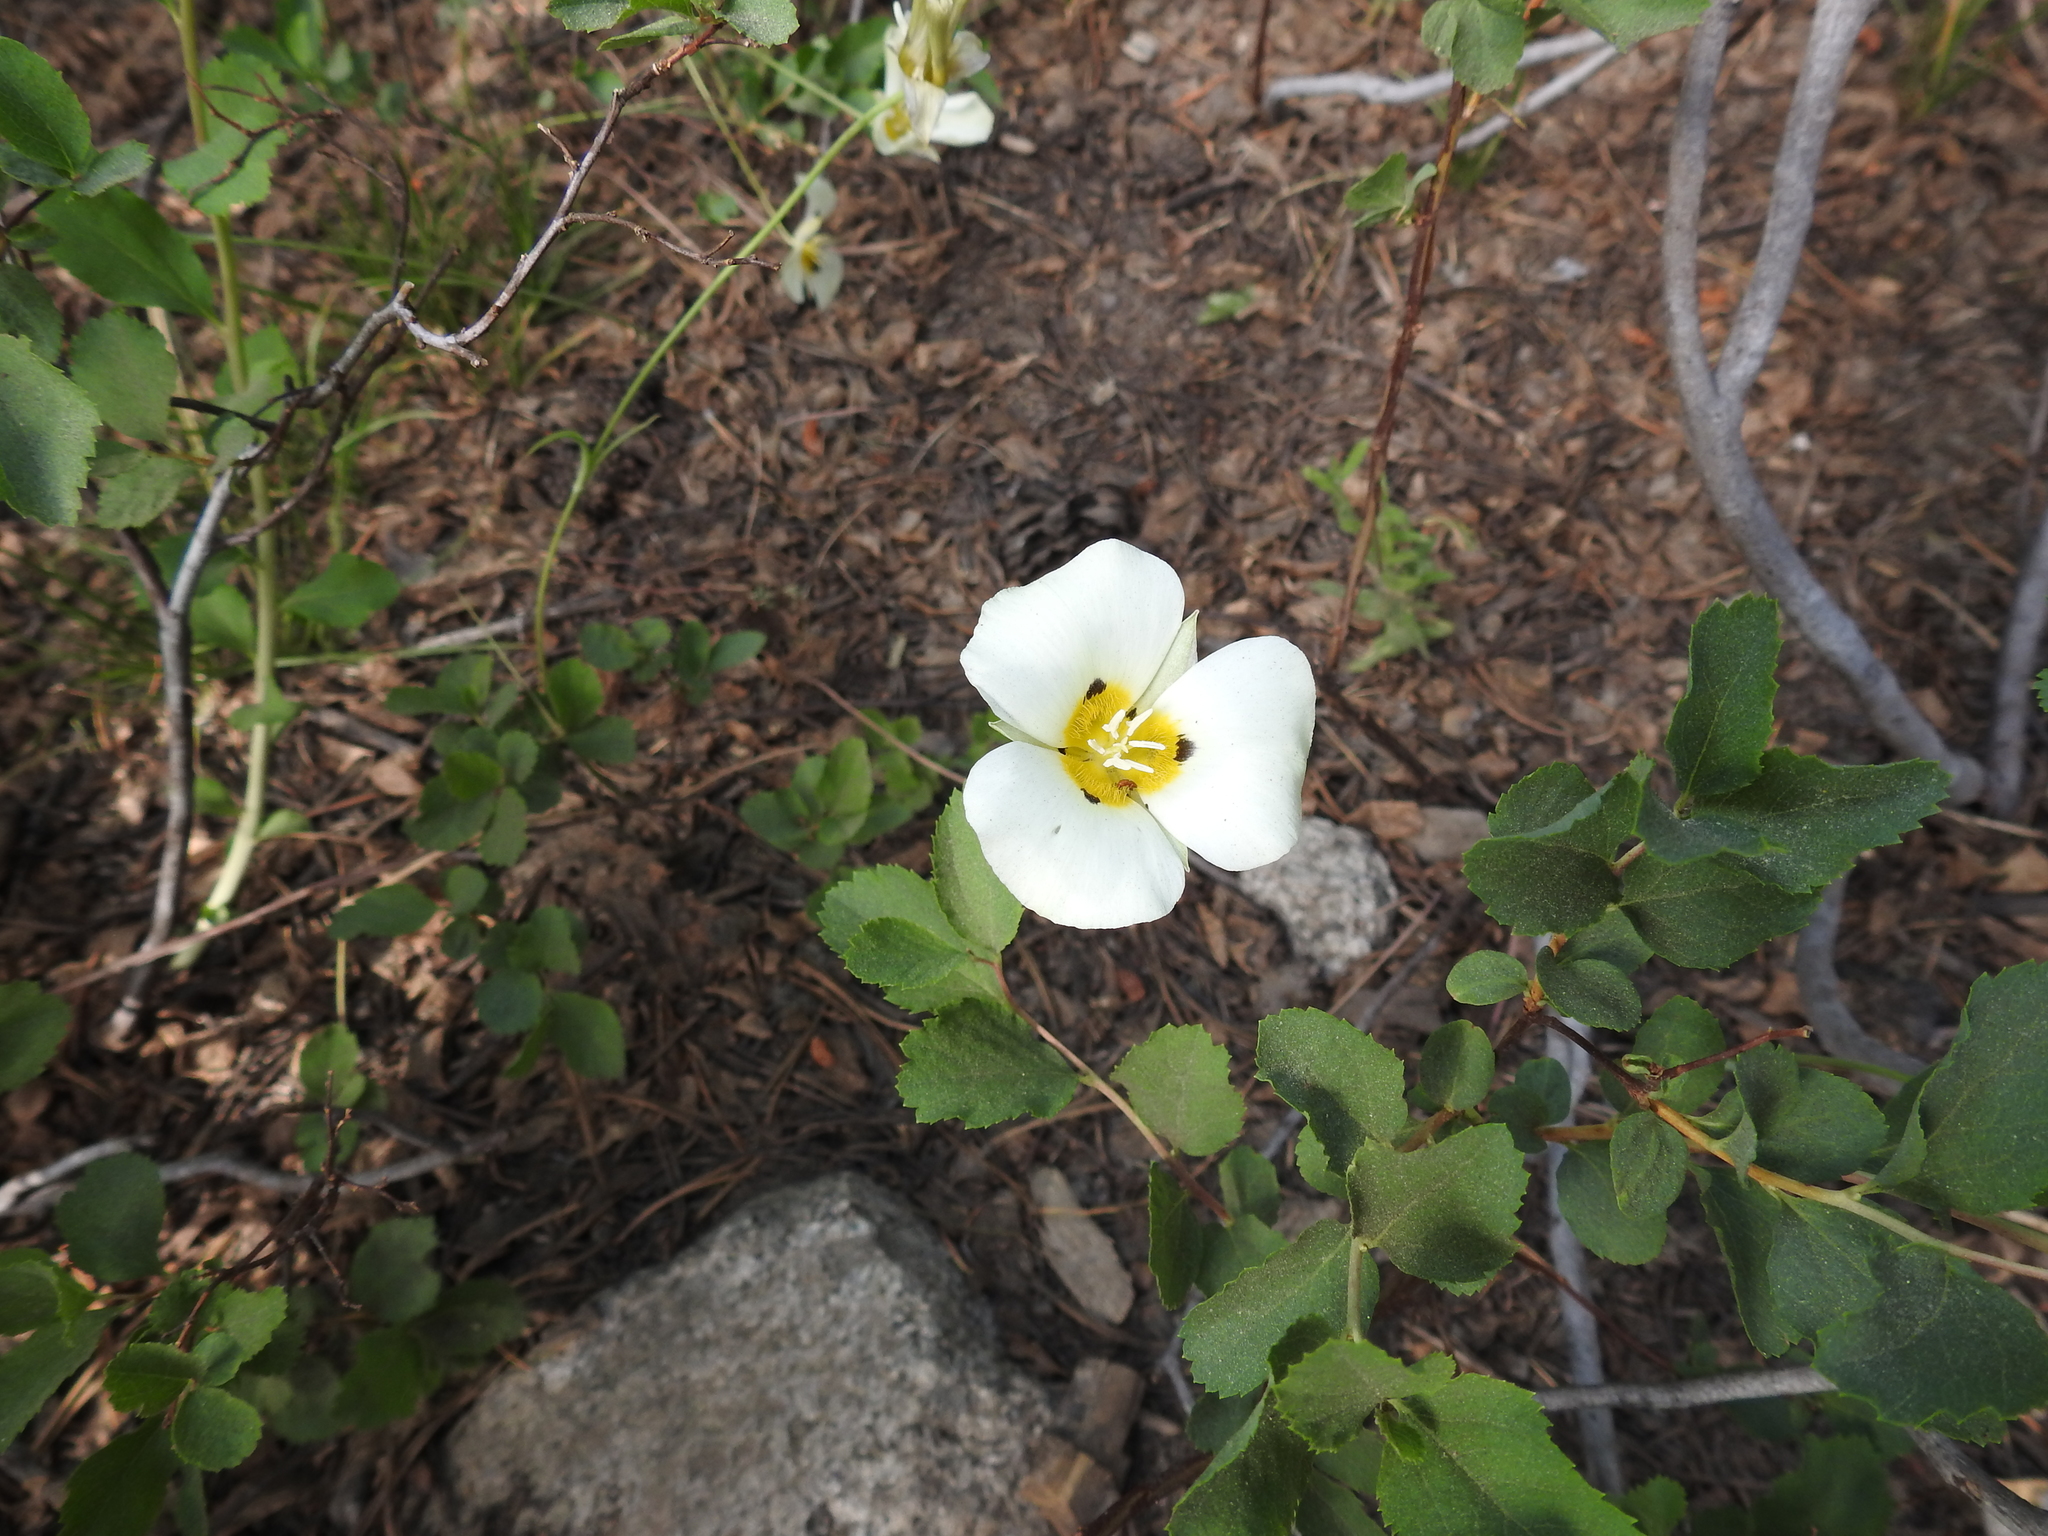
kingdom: Plantae
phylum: Tracheophyta
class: Liliopsida
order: Liliales
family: Liliaceae
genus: Calochortus
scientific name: Calochortus leichtlinii
